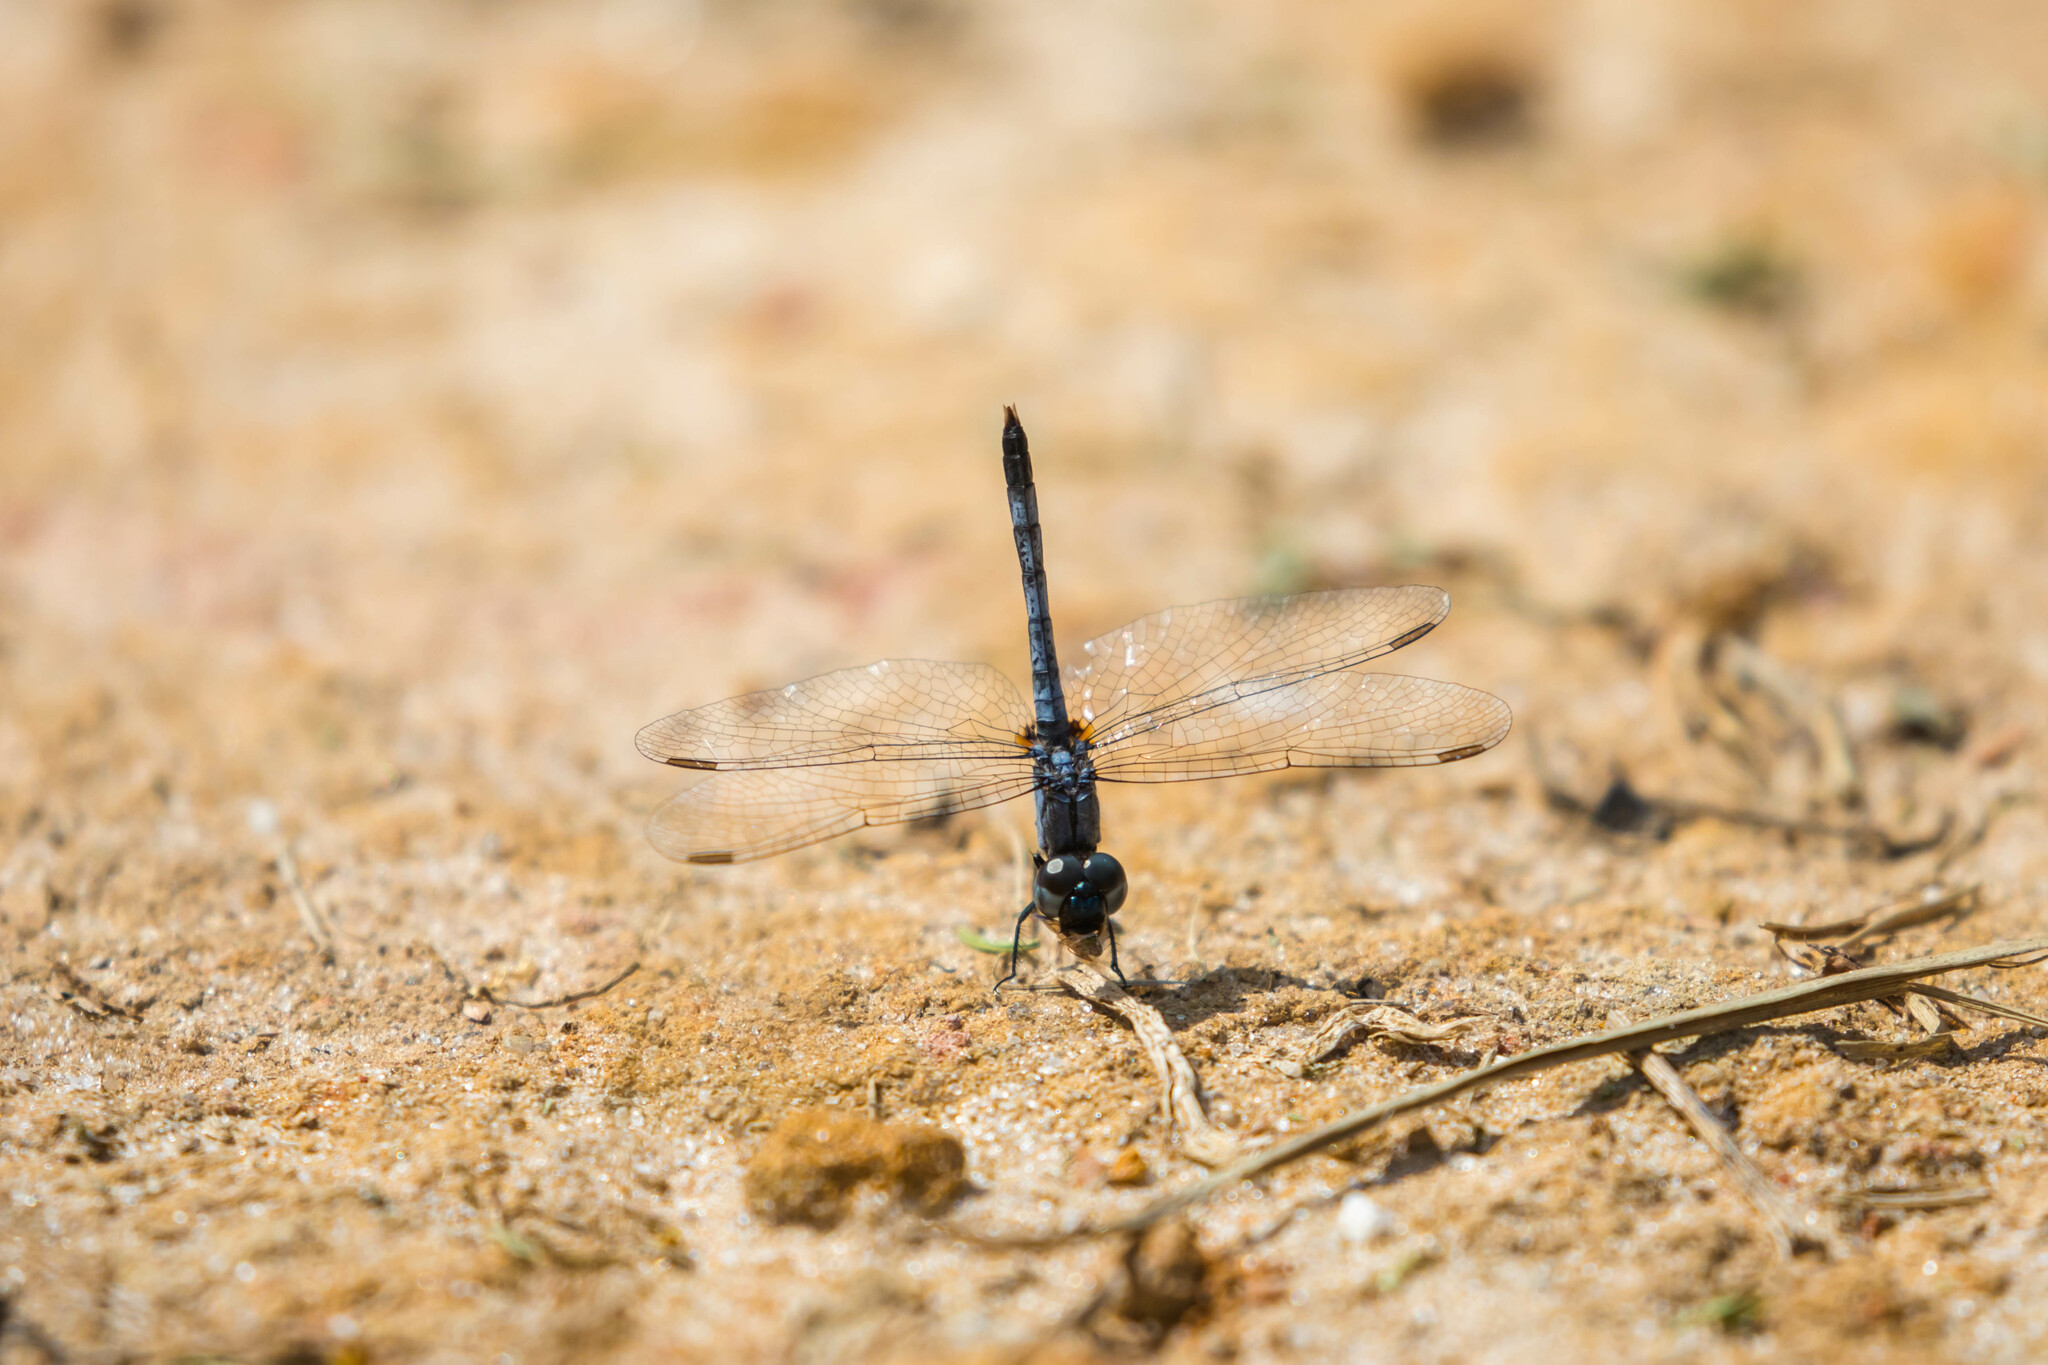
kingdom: Animalia
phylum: Arthropoda
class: Insecta
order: Odonata
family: Libellulidae
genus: Erythrodiplax
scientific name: Erythrodiplax minuscula
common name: Little blue dragonlet
